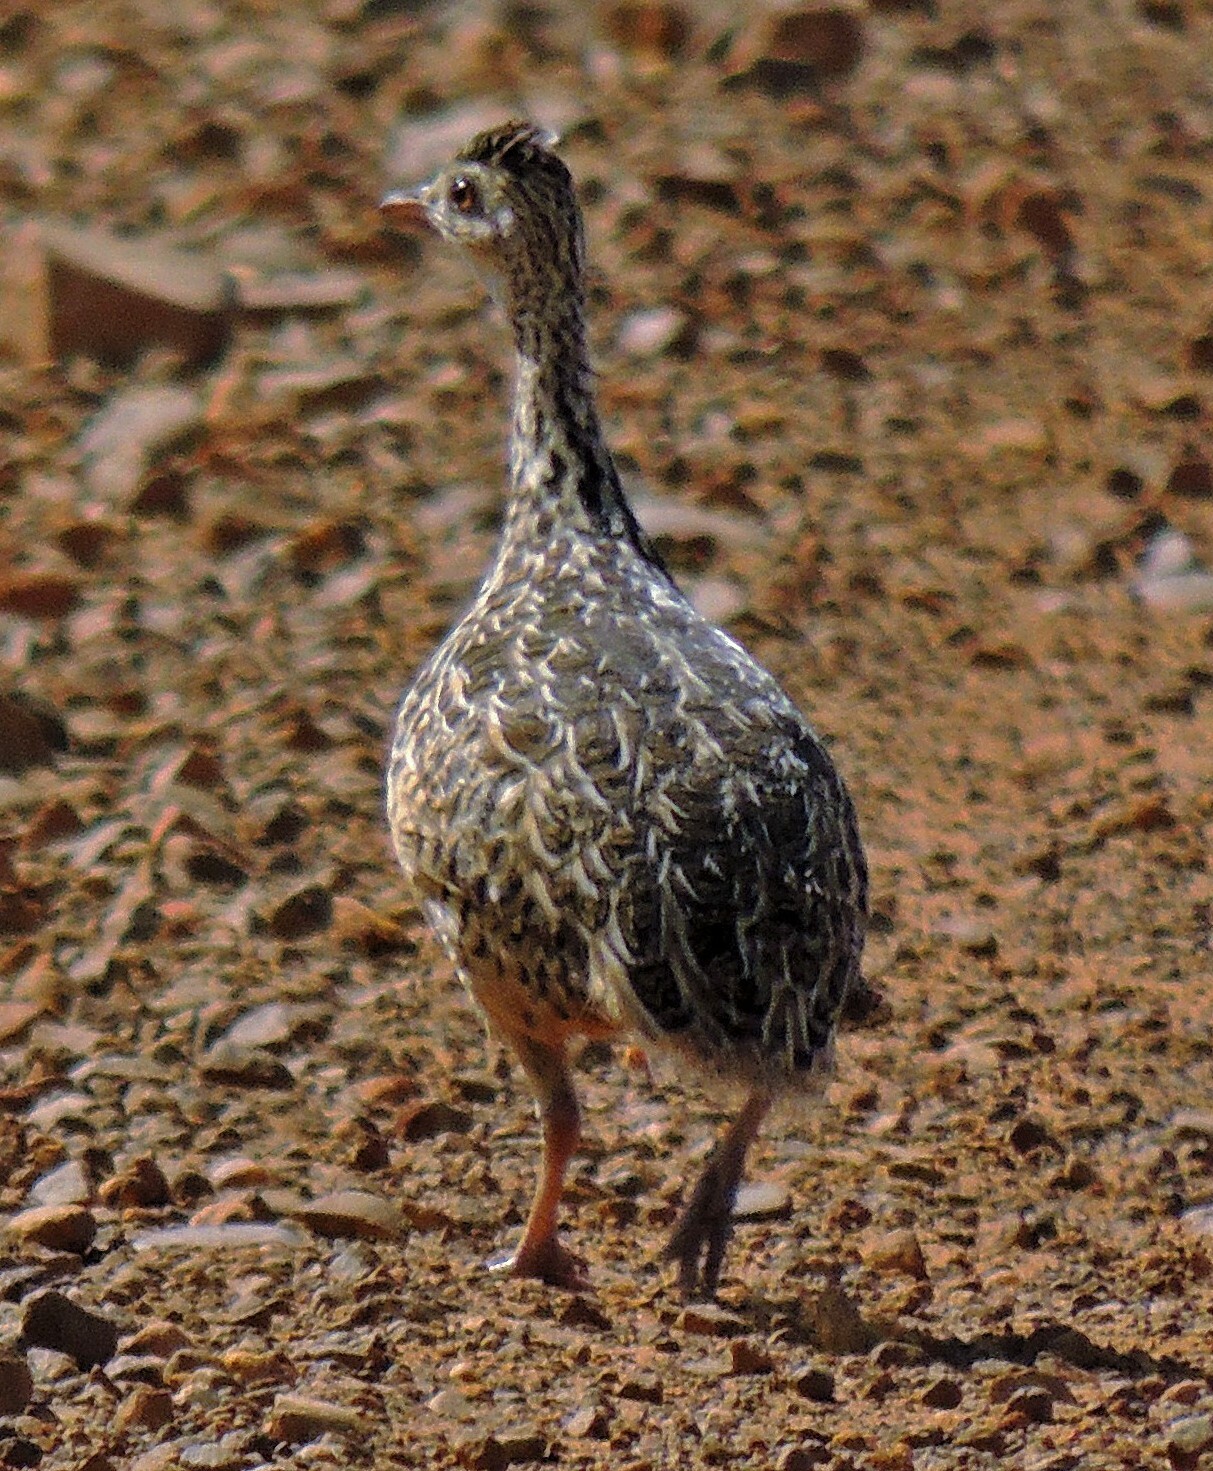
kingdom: Animalia
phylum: Chordata
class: Aves
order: Tinamiformes
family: Tinamidae
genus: Nothura
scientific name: Nothura maculosa
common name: Spotted nothura
